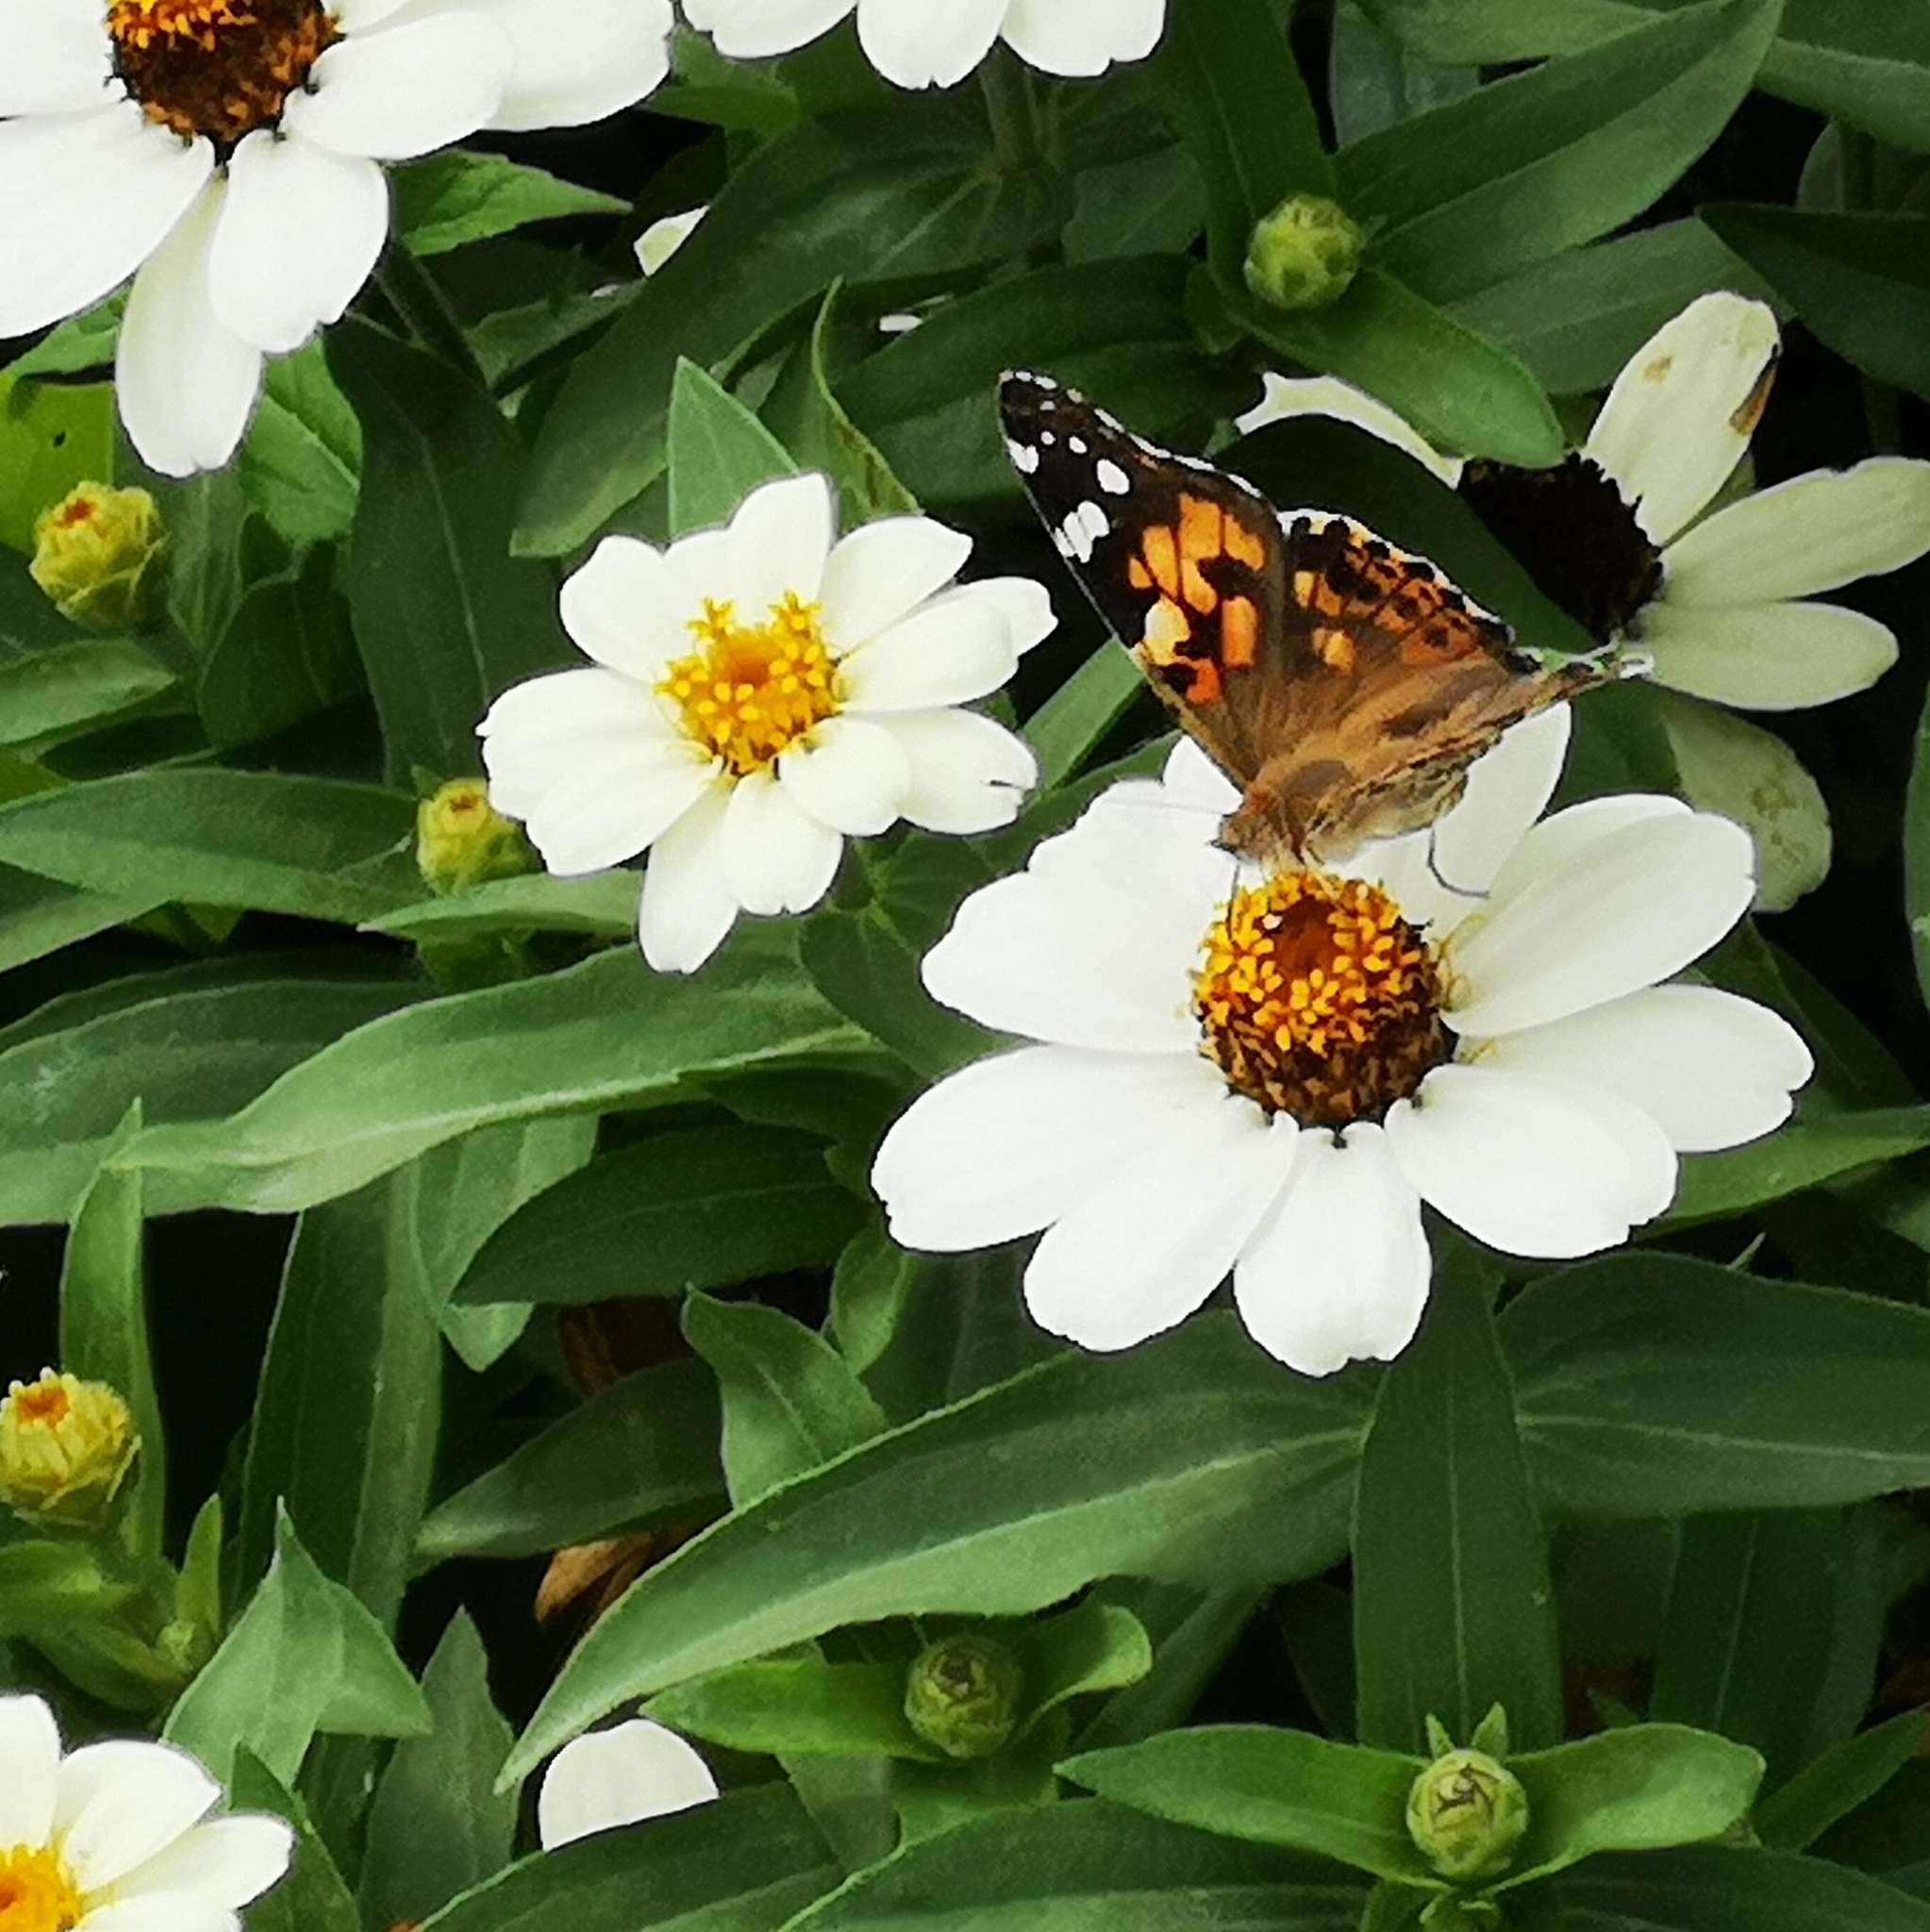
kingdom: Animalia
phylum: Arthropoda
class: Insecta
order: Lepidoptera
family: Nymphalidae
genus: Vanessa
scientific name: Vanessa cardui
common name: Painted lady
